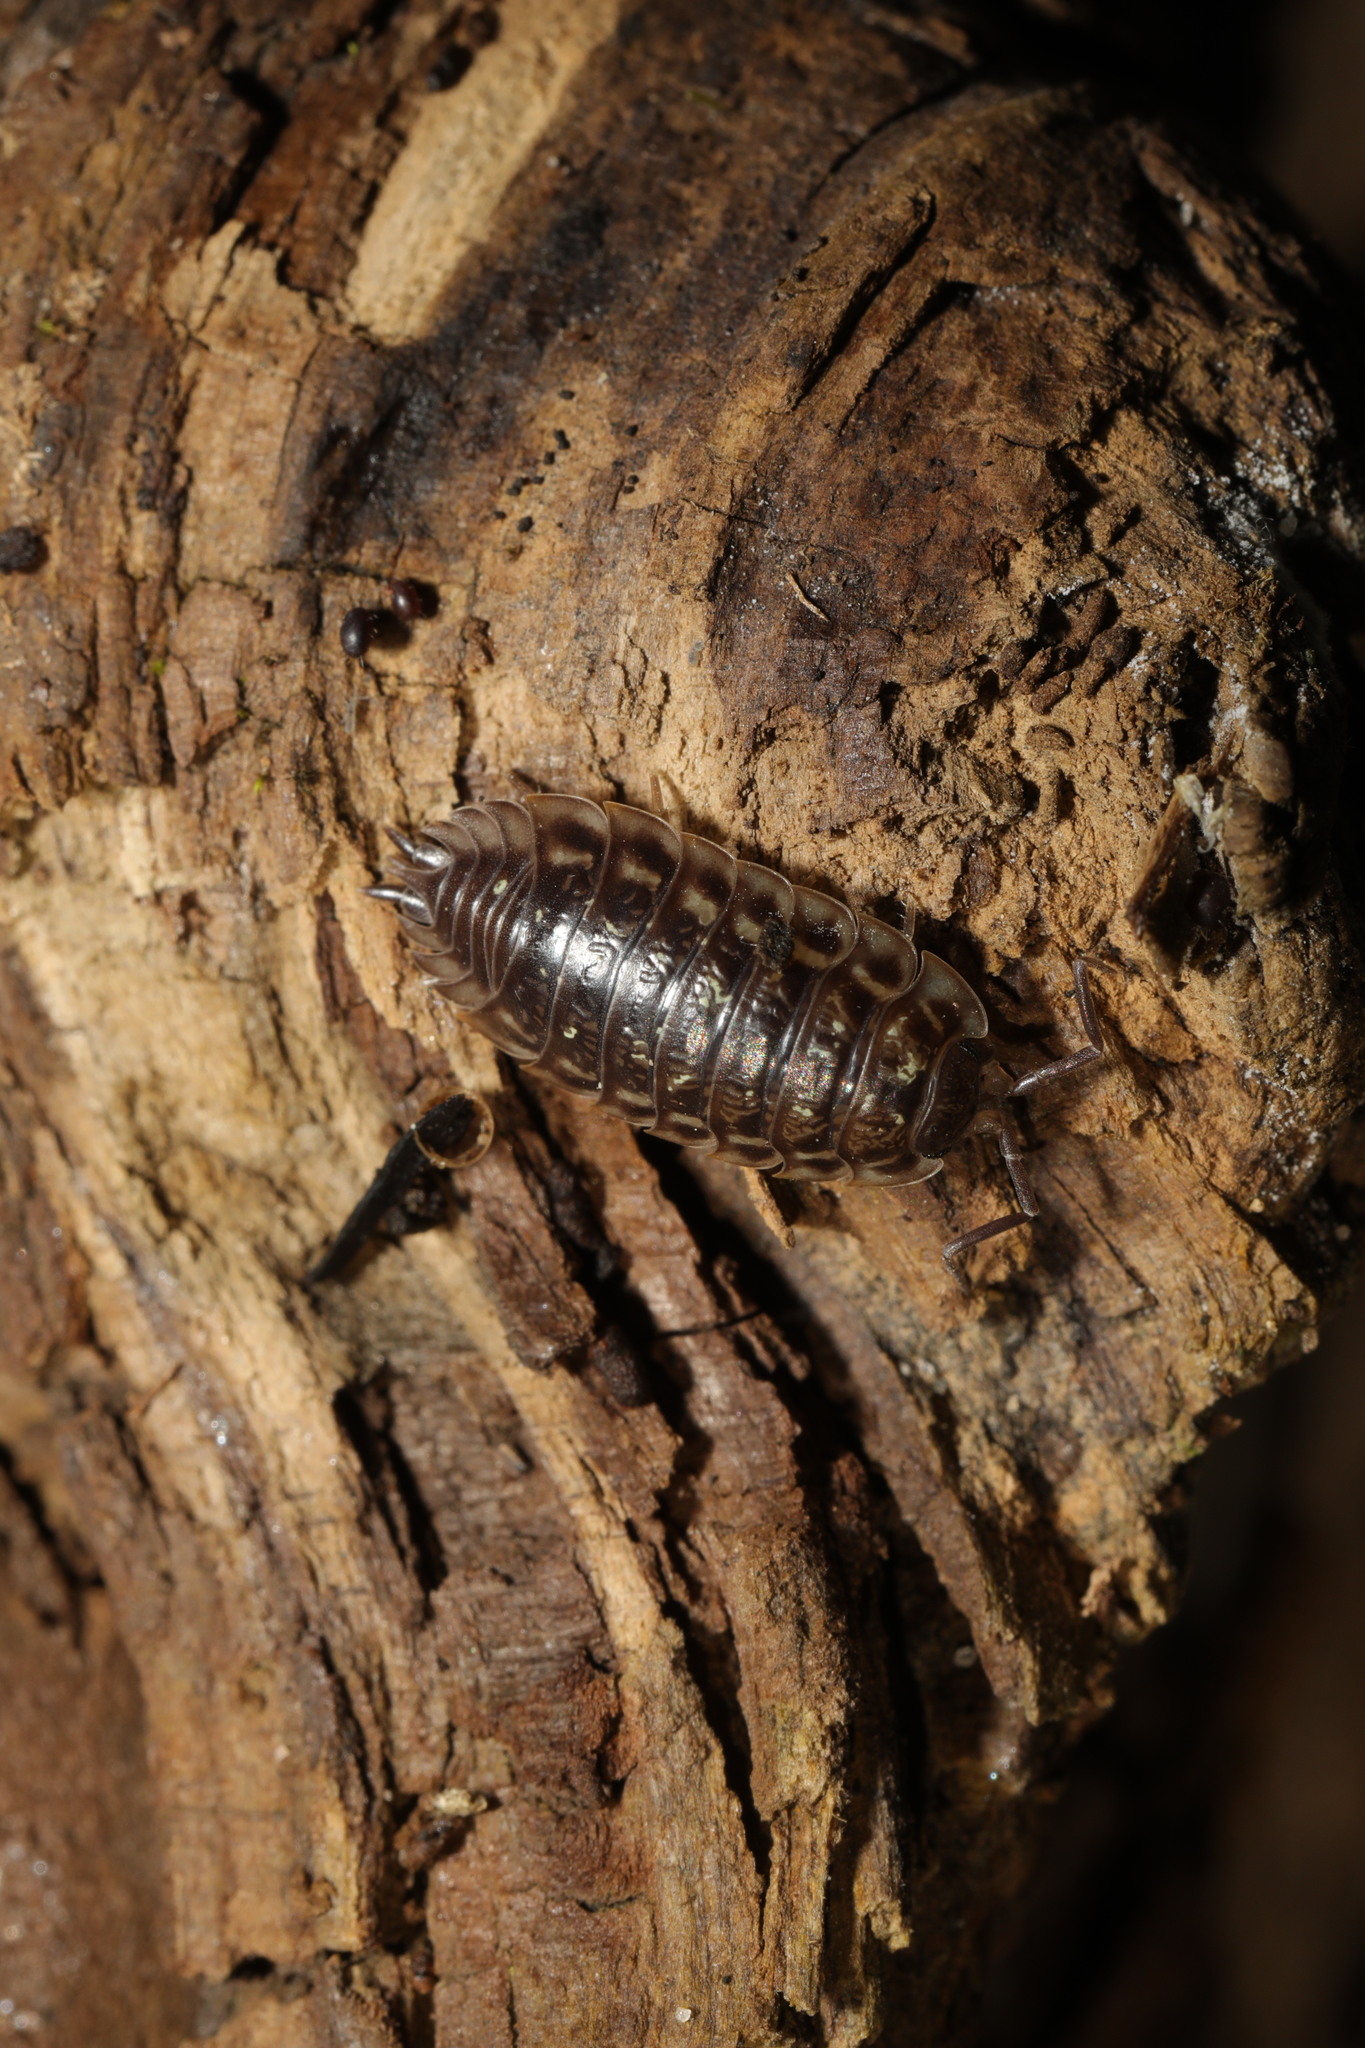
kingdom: Animalia
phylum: Arthropoda
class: Malacostraca
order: Isopoda
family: Oniscidae
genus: Oniscus
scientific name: Oniscus asellus
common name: Common shiny woodlouse
